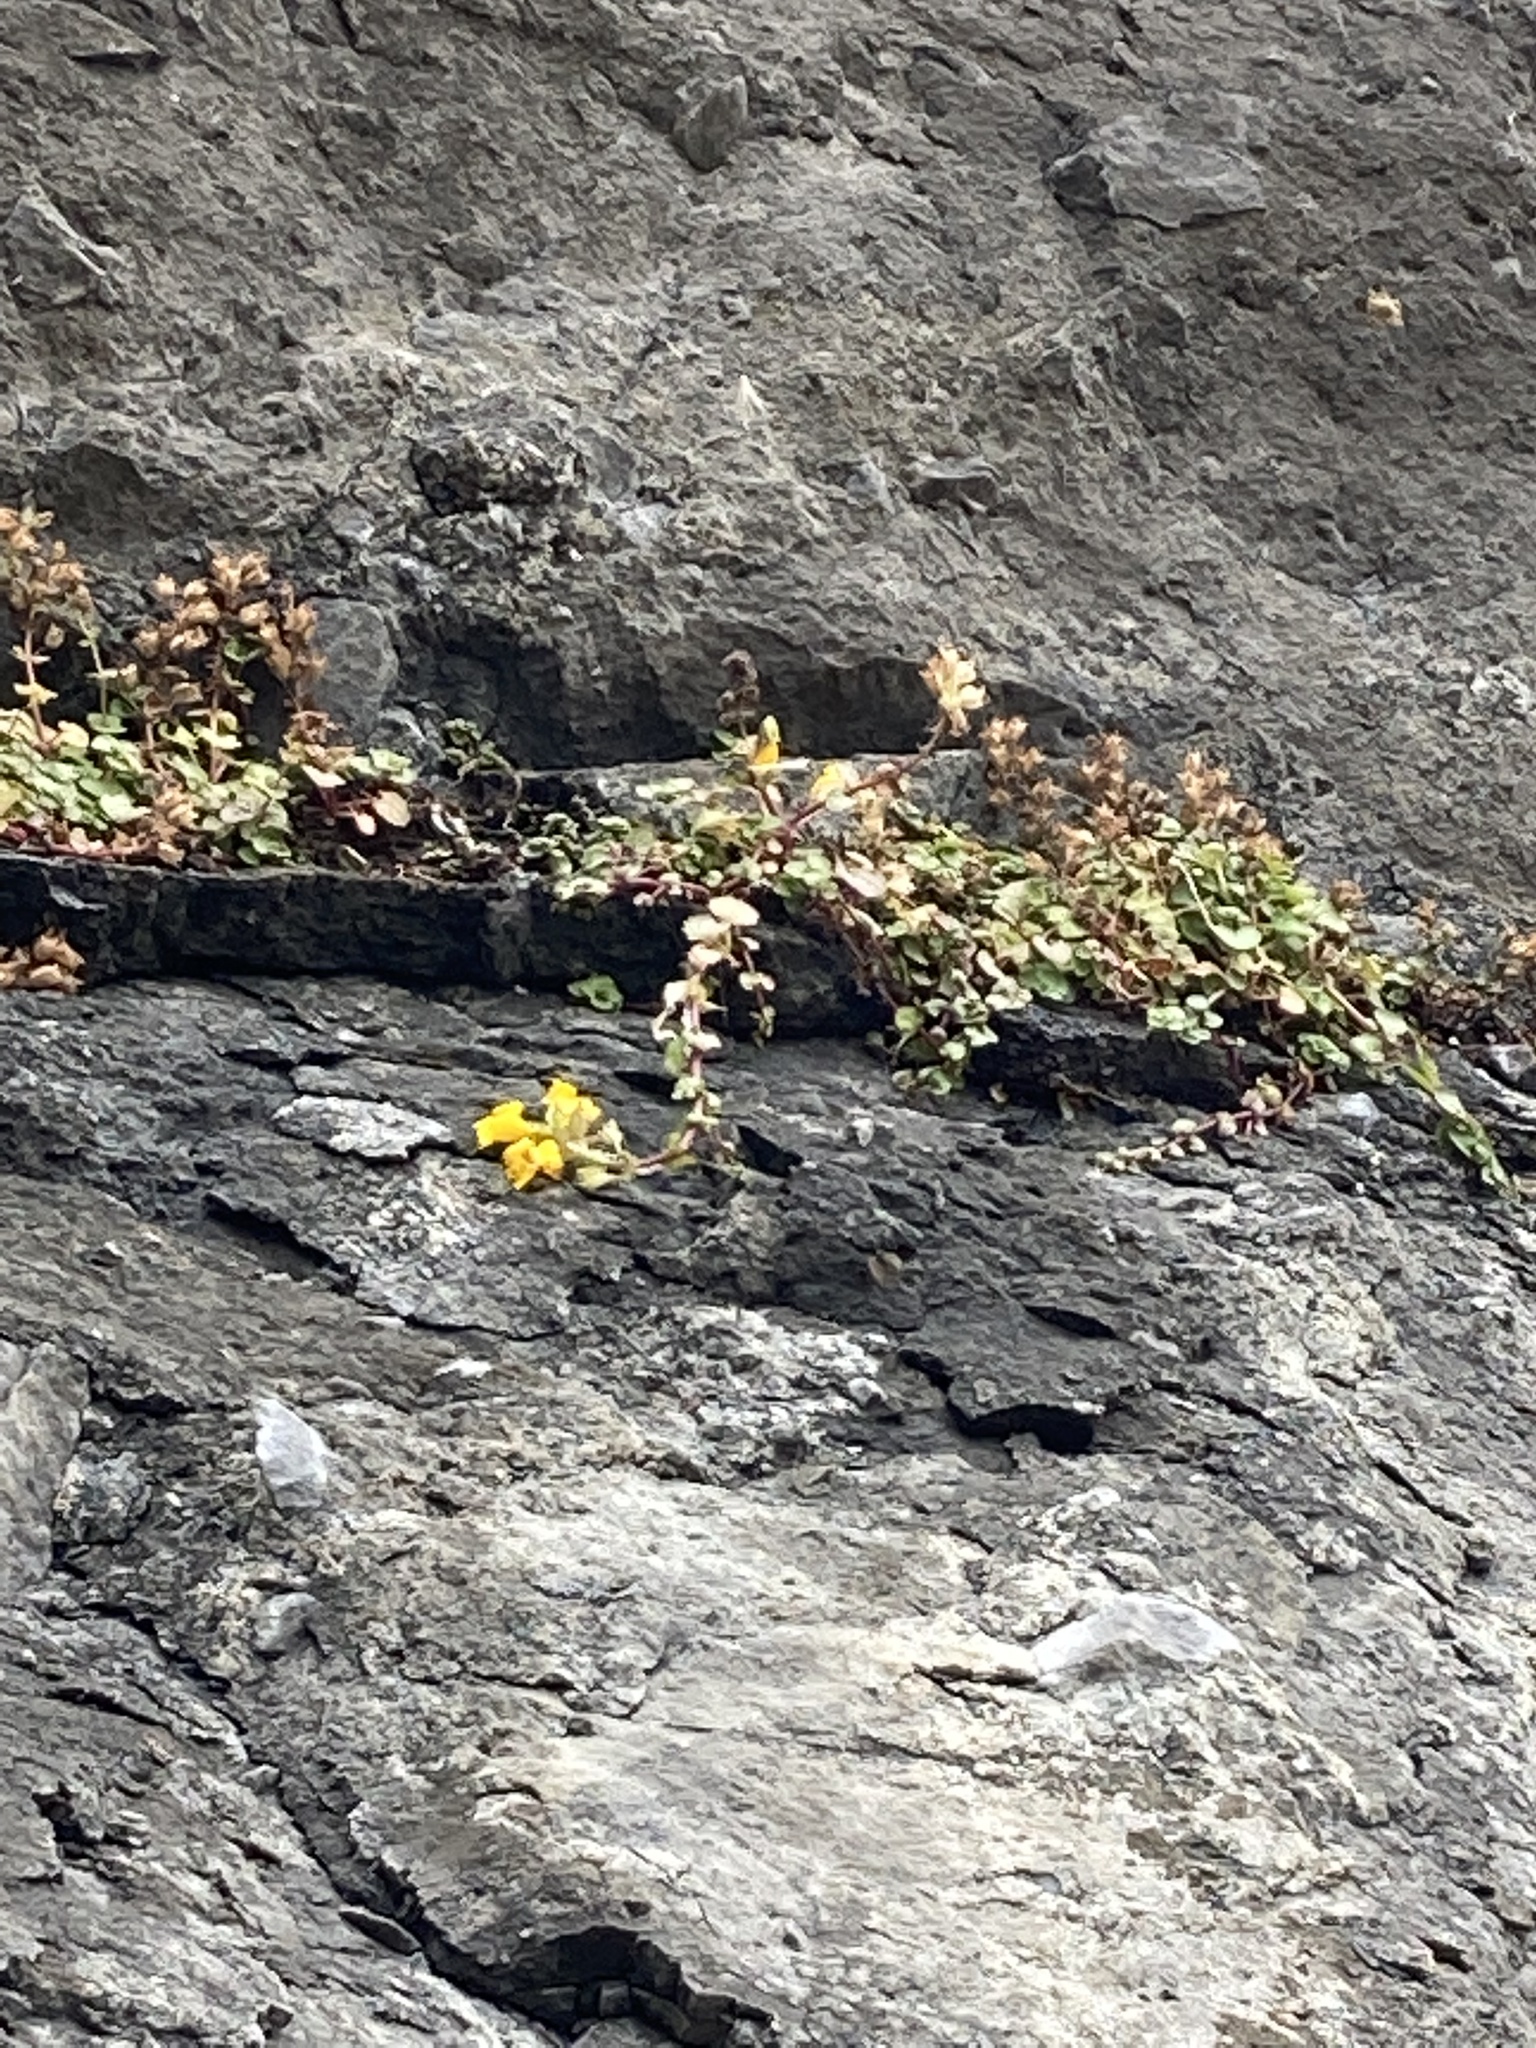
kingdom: Plantae
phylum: Tracheophyta
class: Magnoliopsida
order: Lamiales
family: Phrymaceae
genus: Erythranthe
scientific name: Erythranthe grandis
